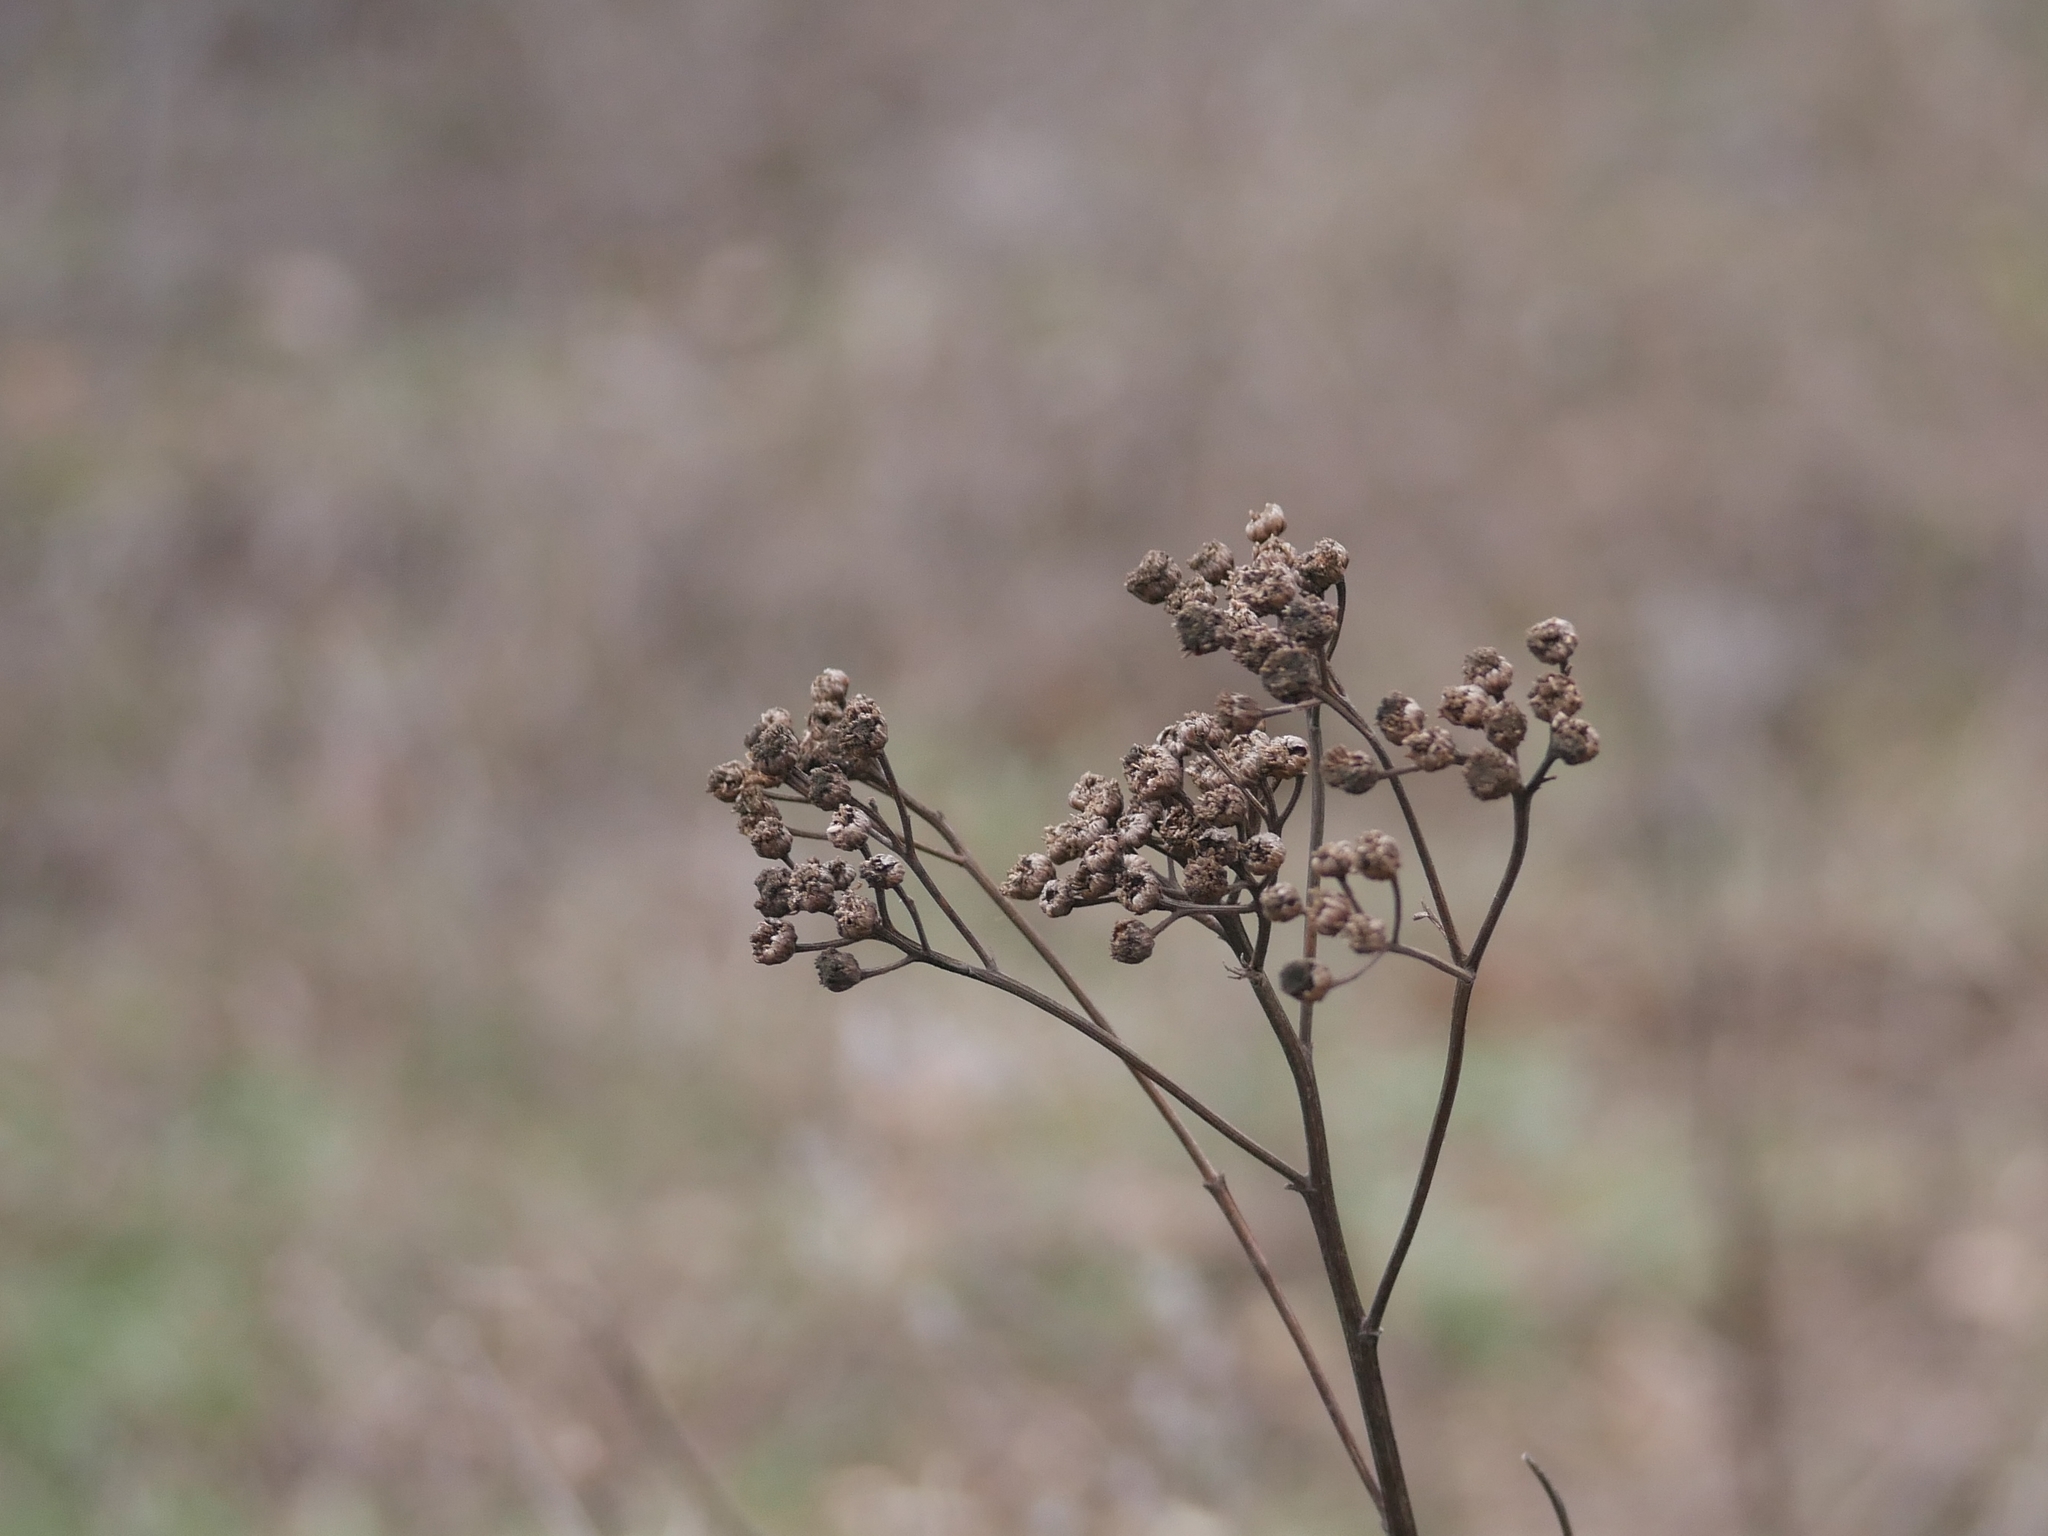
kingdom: Plantae
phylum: Tracheophyta
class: Magnoliopsida
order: Asterales
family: Asteraceae
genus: Tanacetum
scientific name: Tanacetum vulgare
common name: Common tansy
